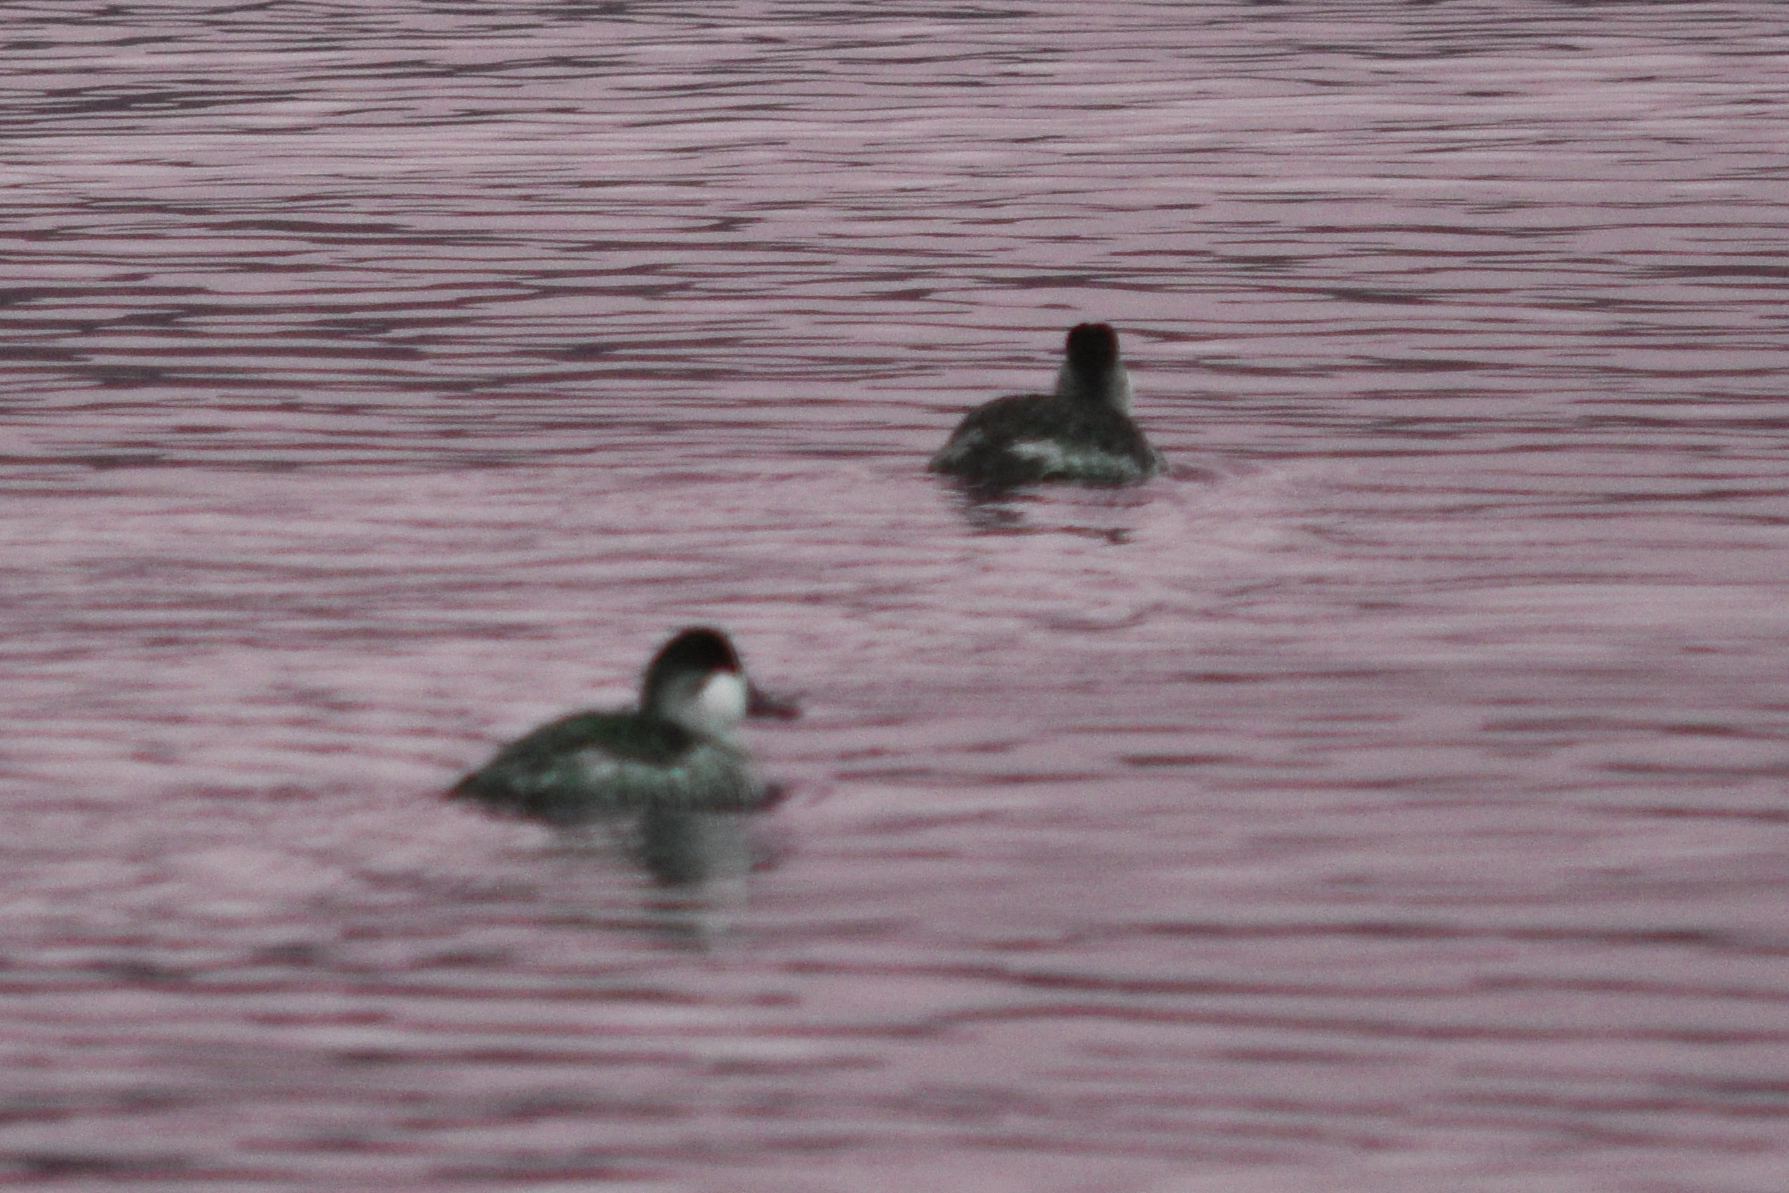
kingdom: Animalia
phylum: Chordata
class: Aves
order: Anseriformes
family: Anatidae
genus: Oxyura
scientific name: Oxyura jamaicensis
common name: Ruddy duck
